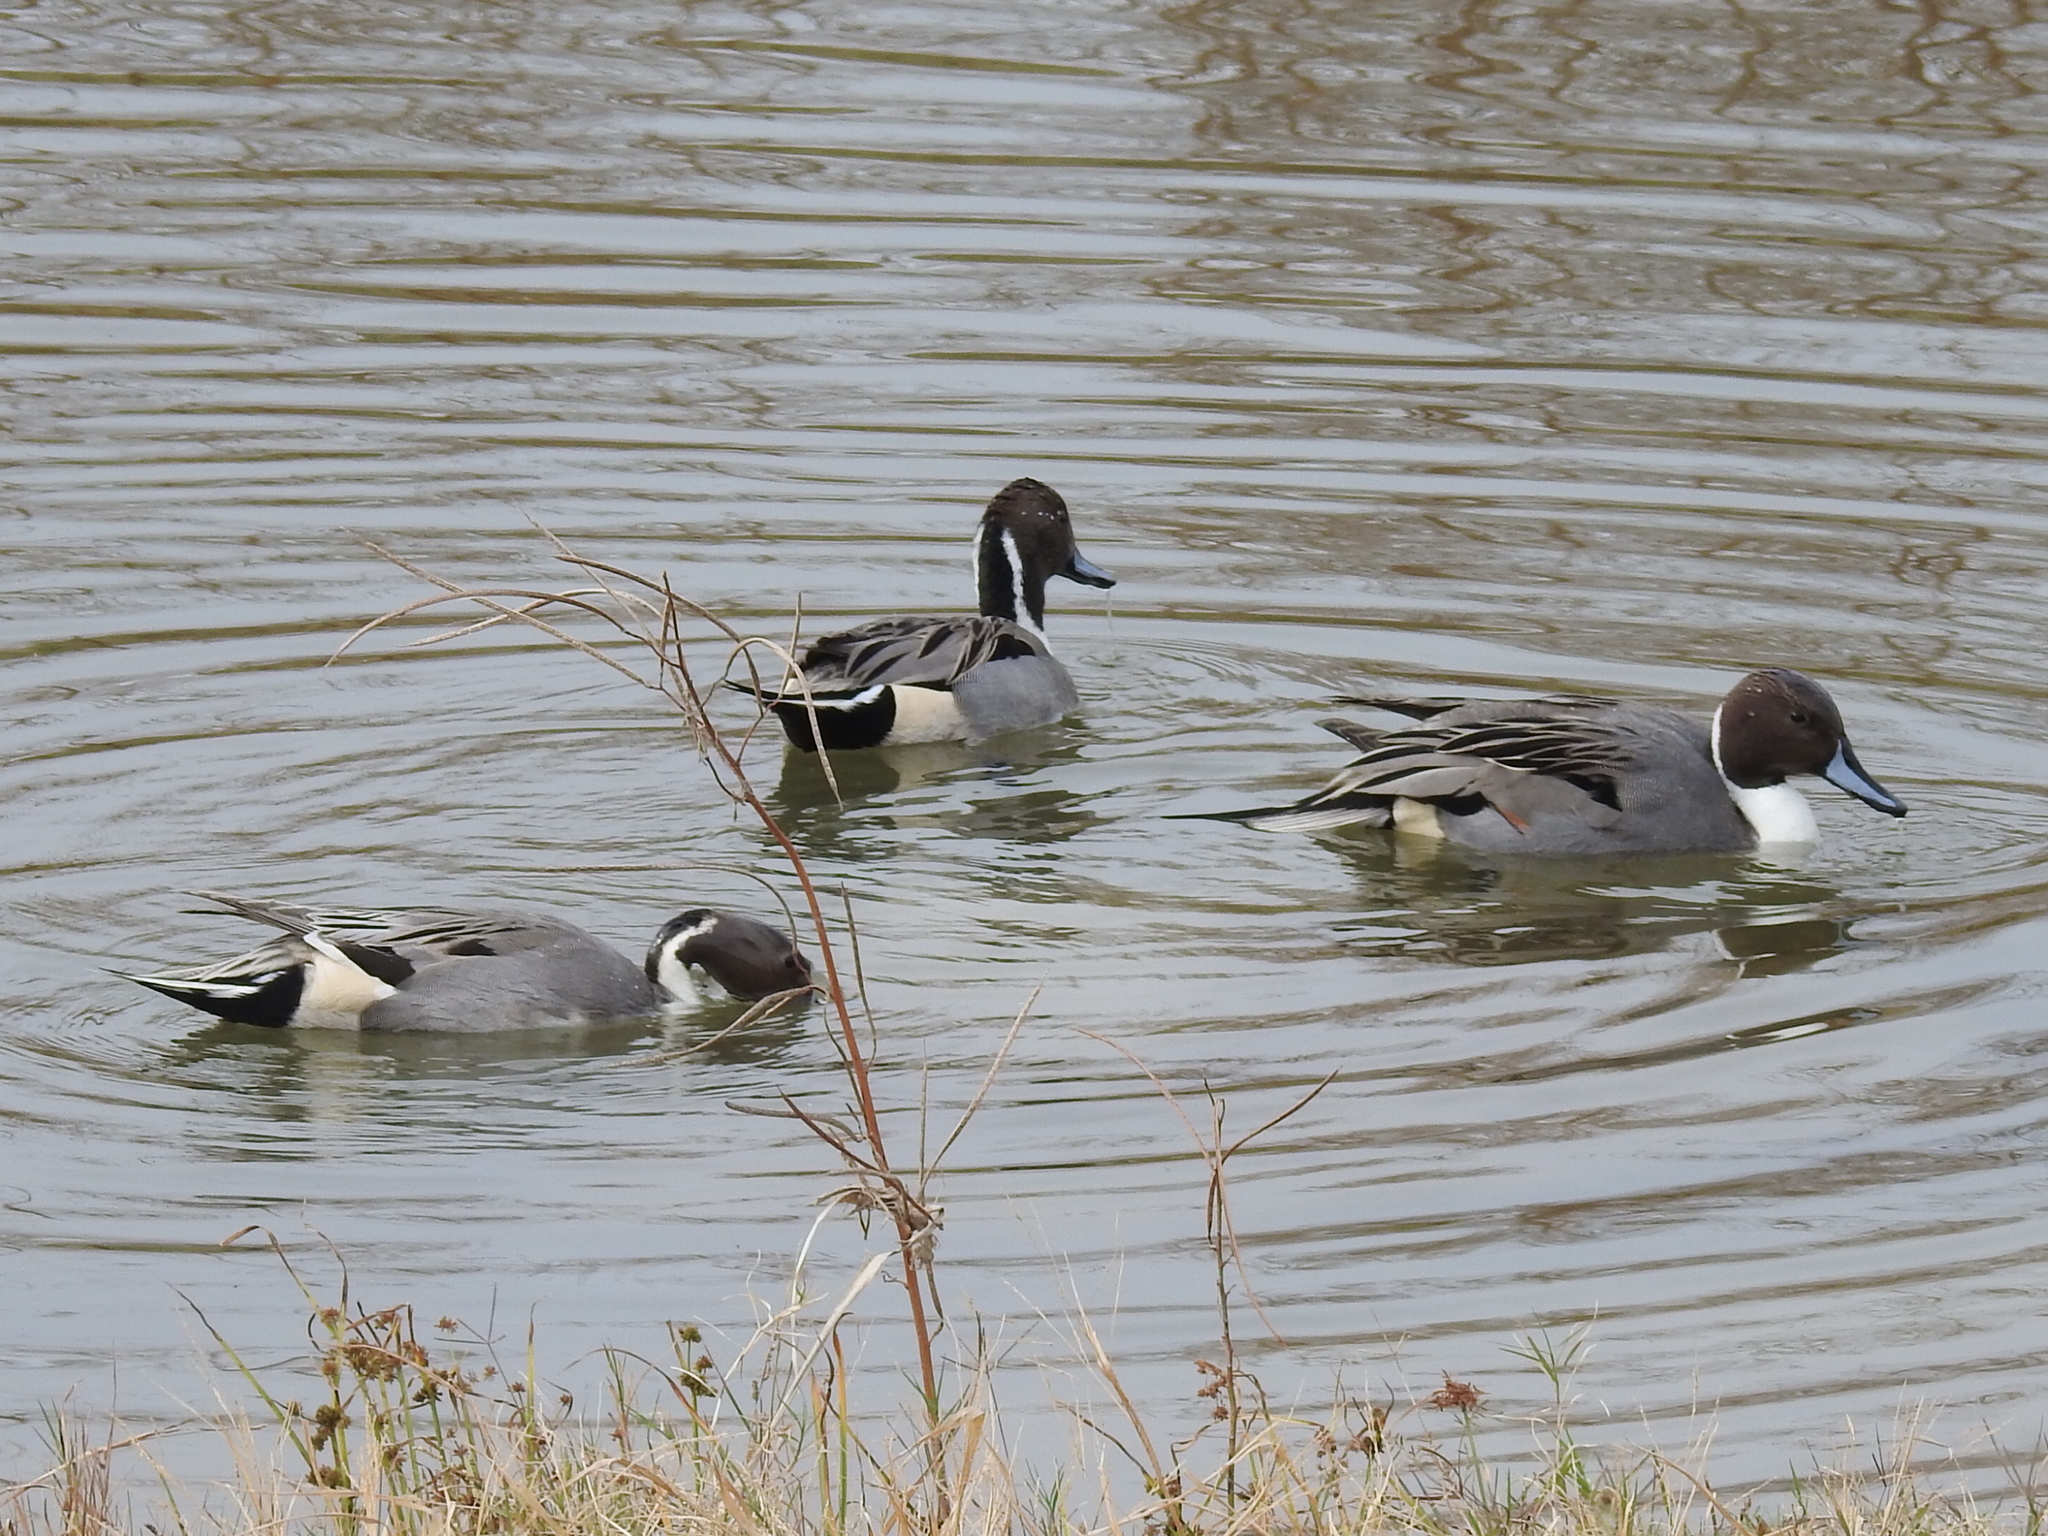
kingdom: Animalia
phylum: Chordata
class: Aves
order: Anseriformes
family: Anatidae
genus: Anas
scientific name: Anas acuta
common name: Northern pintail
